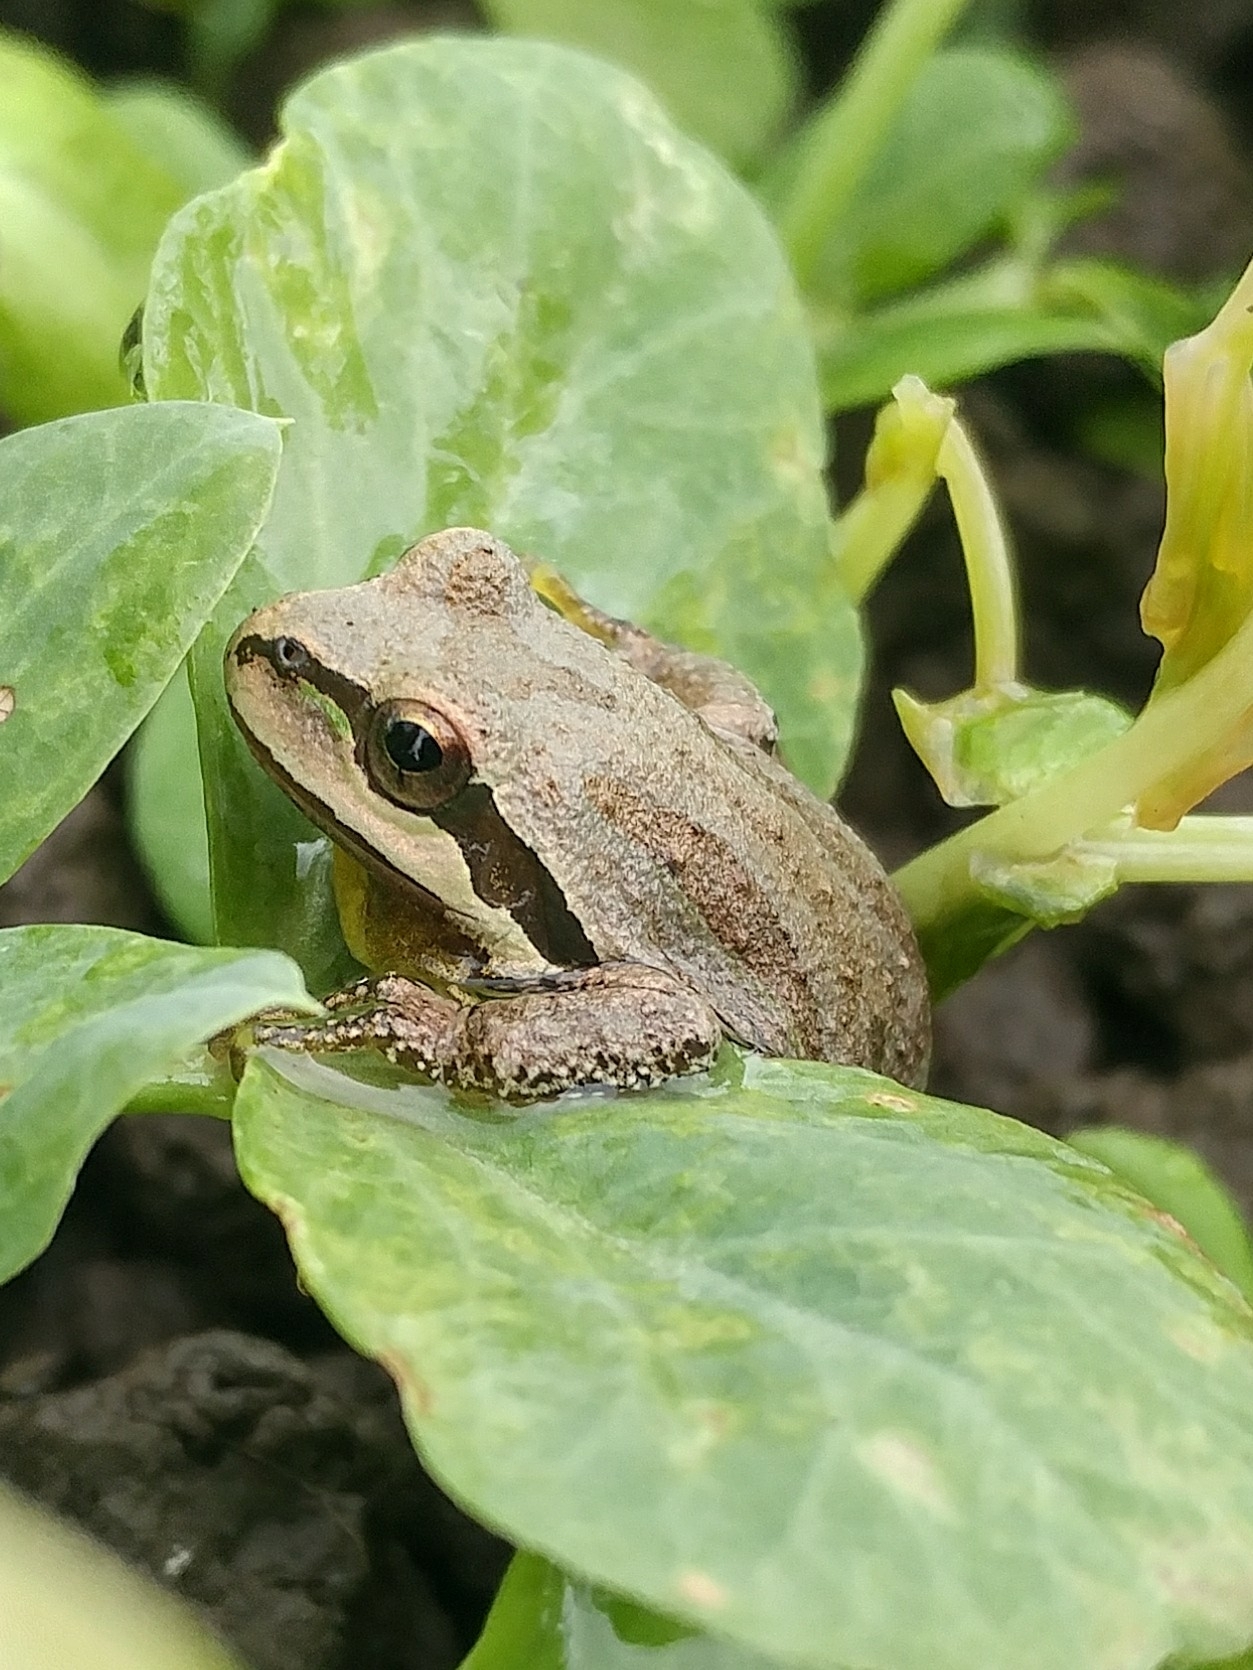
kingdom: Animalia
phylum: Chordata
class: Amphibia
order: Anura
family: Hylidae
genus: Pseudacris
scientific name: Pseudacris regilla
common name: Pacific chorus frog
